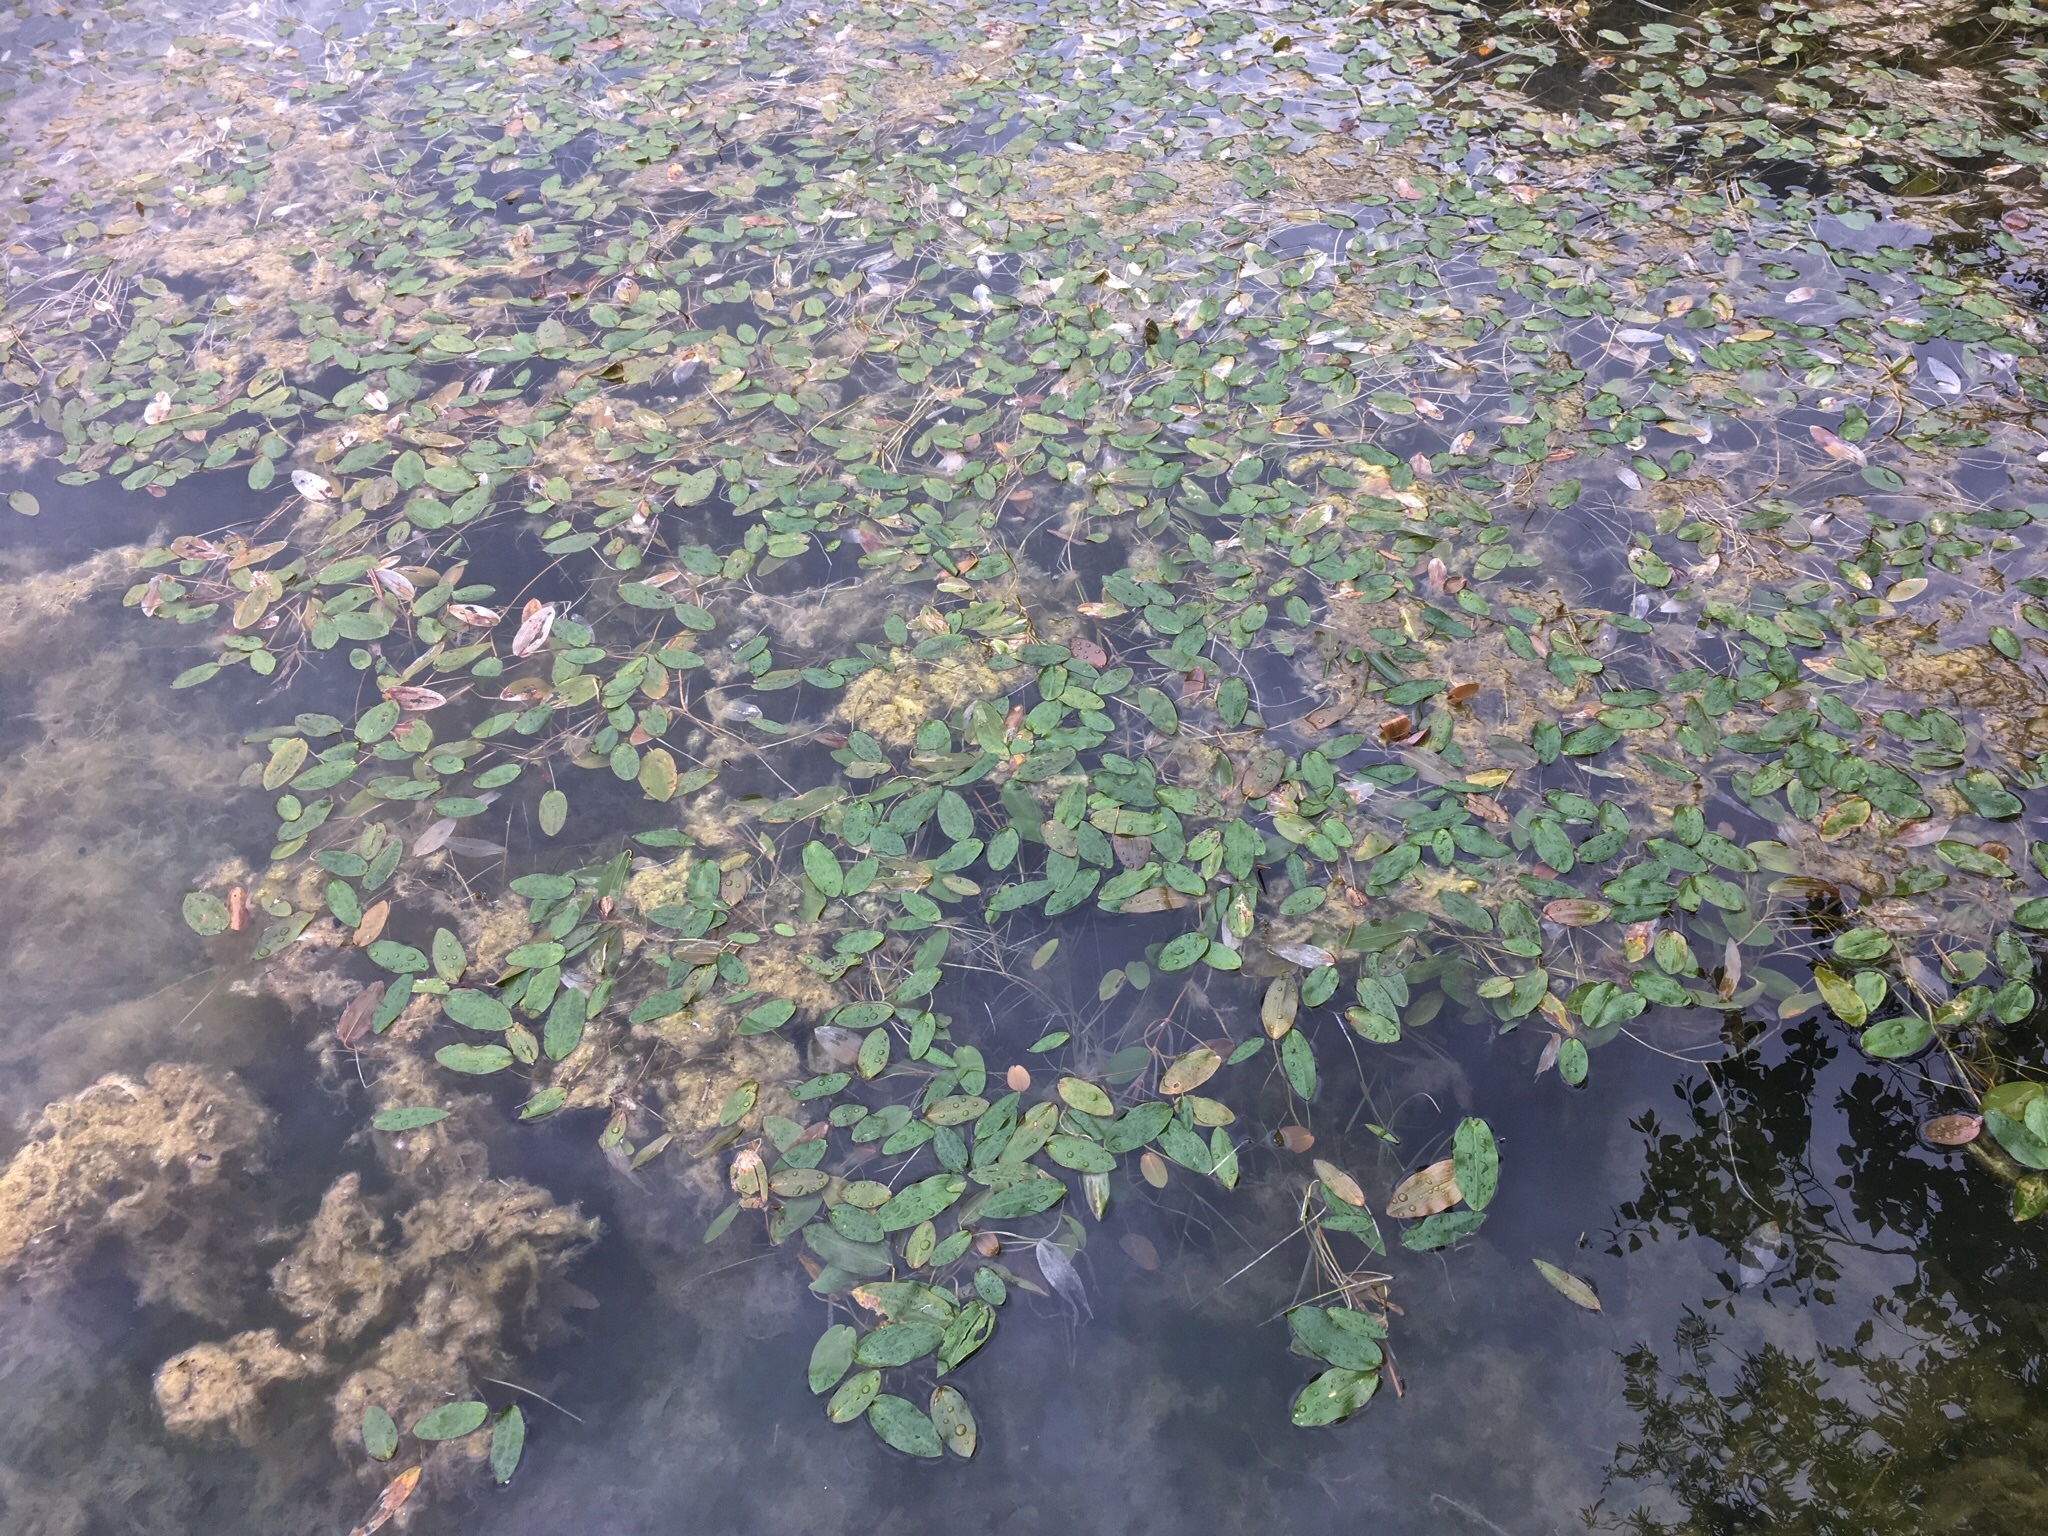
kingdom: Plantae
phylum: Tracheophyta
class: Liliopsida
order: Alismatales
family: Potamogetonaceae
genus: Potamogeton
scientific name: Potamogeton natans
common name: Broad-leaved pondweed
